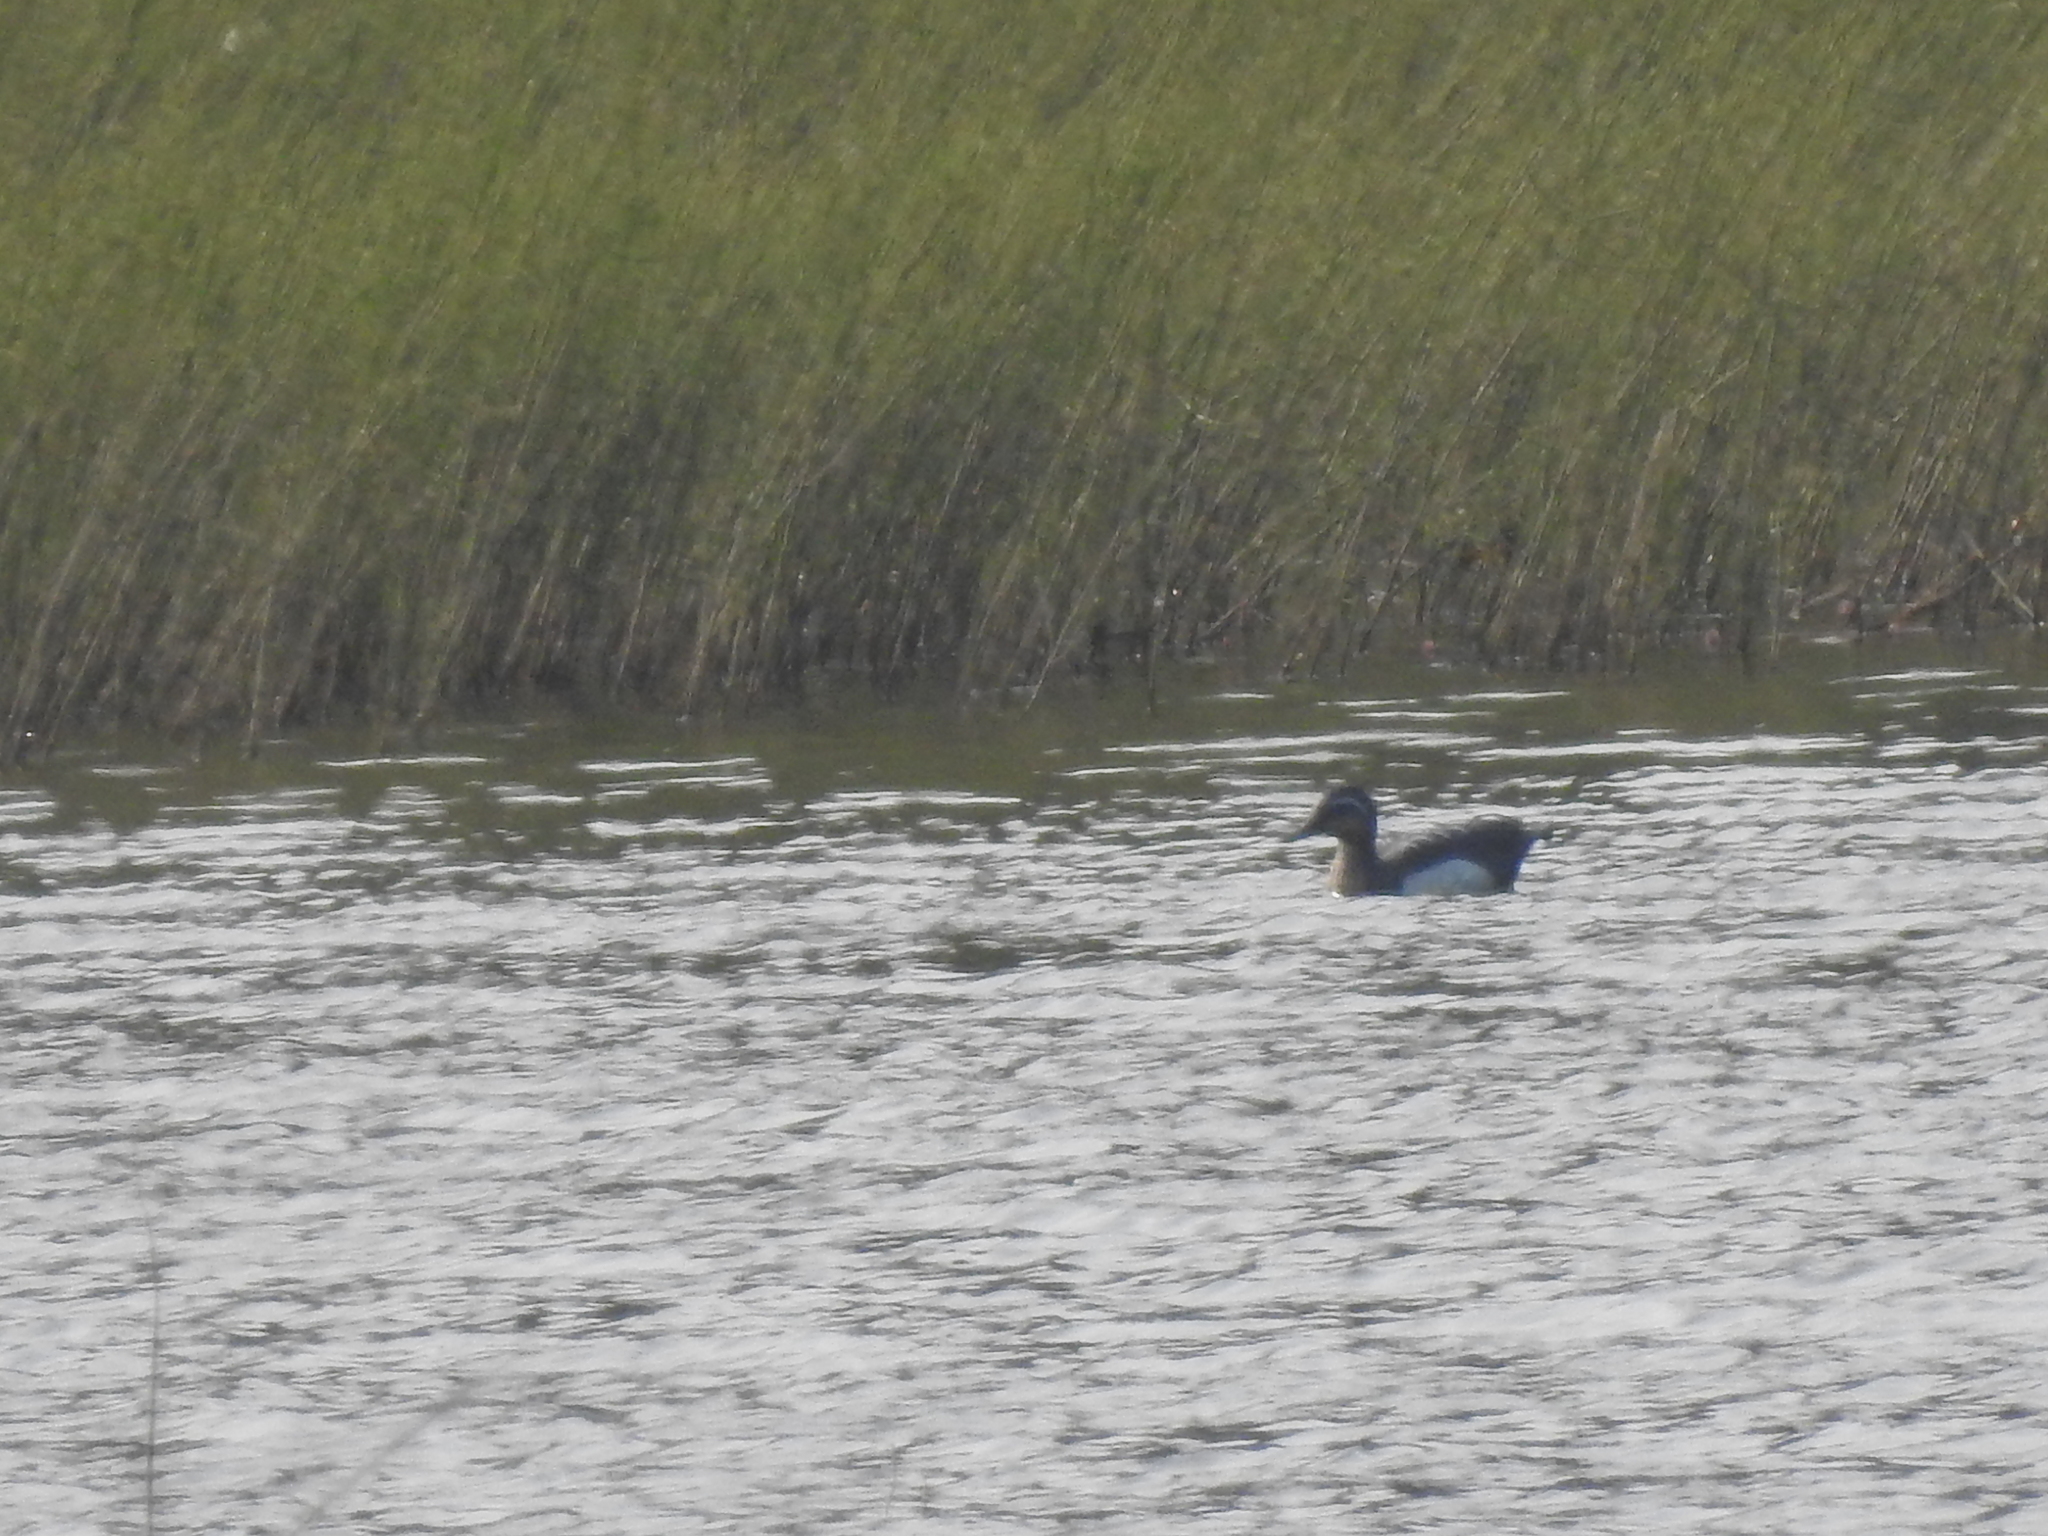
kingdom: Animalia
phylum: Chordata
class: Aves
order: Anseriformes
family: Anatidae
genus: Spatula
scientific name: Spatula querquedula
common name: Garganey
